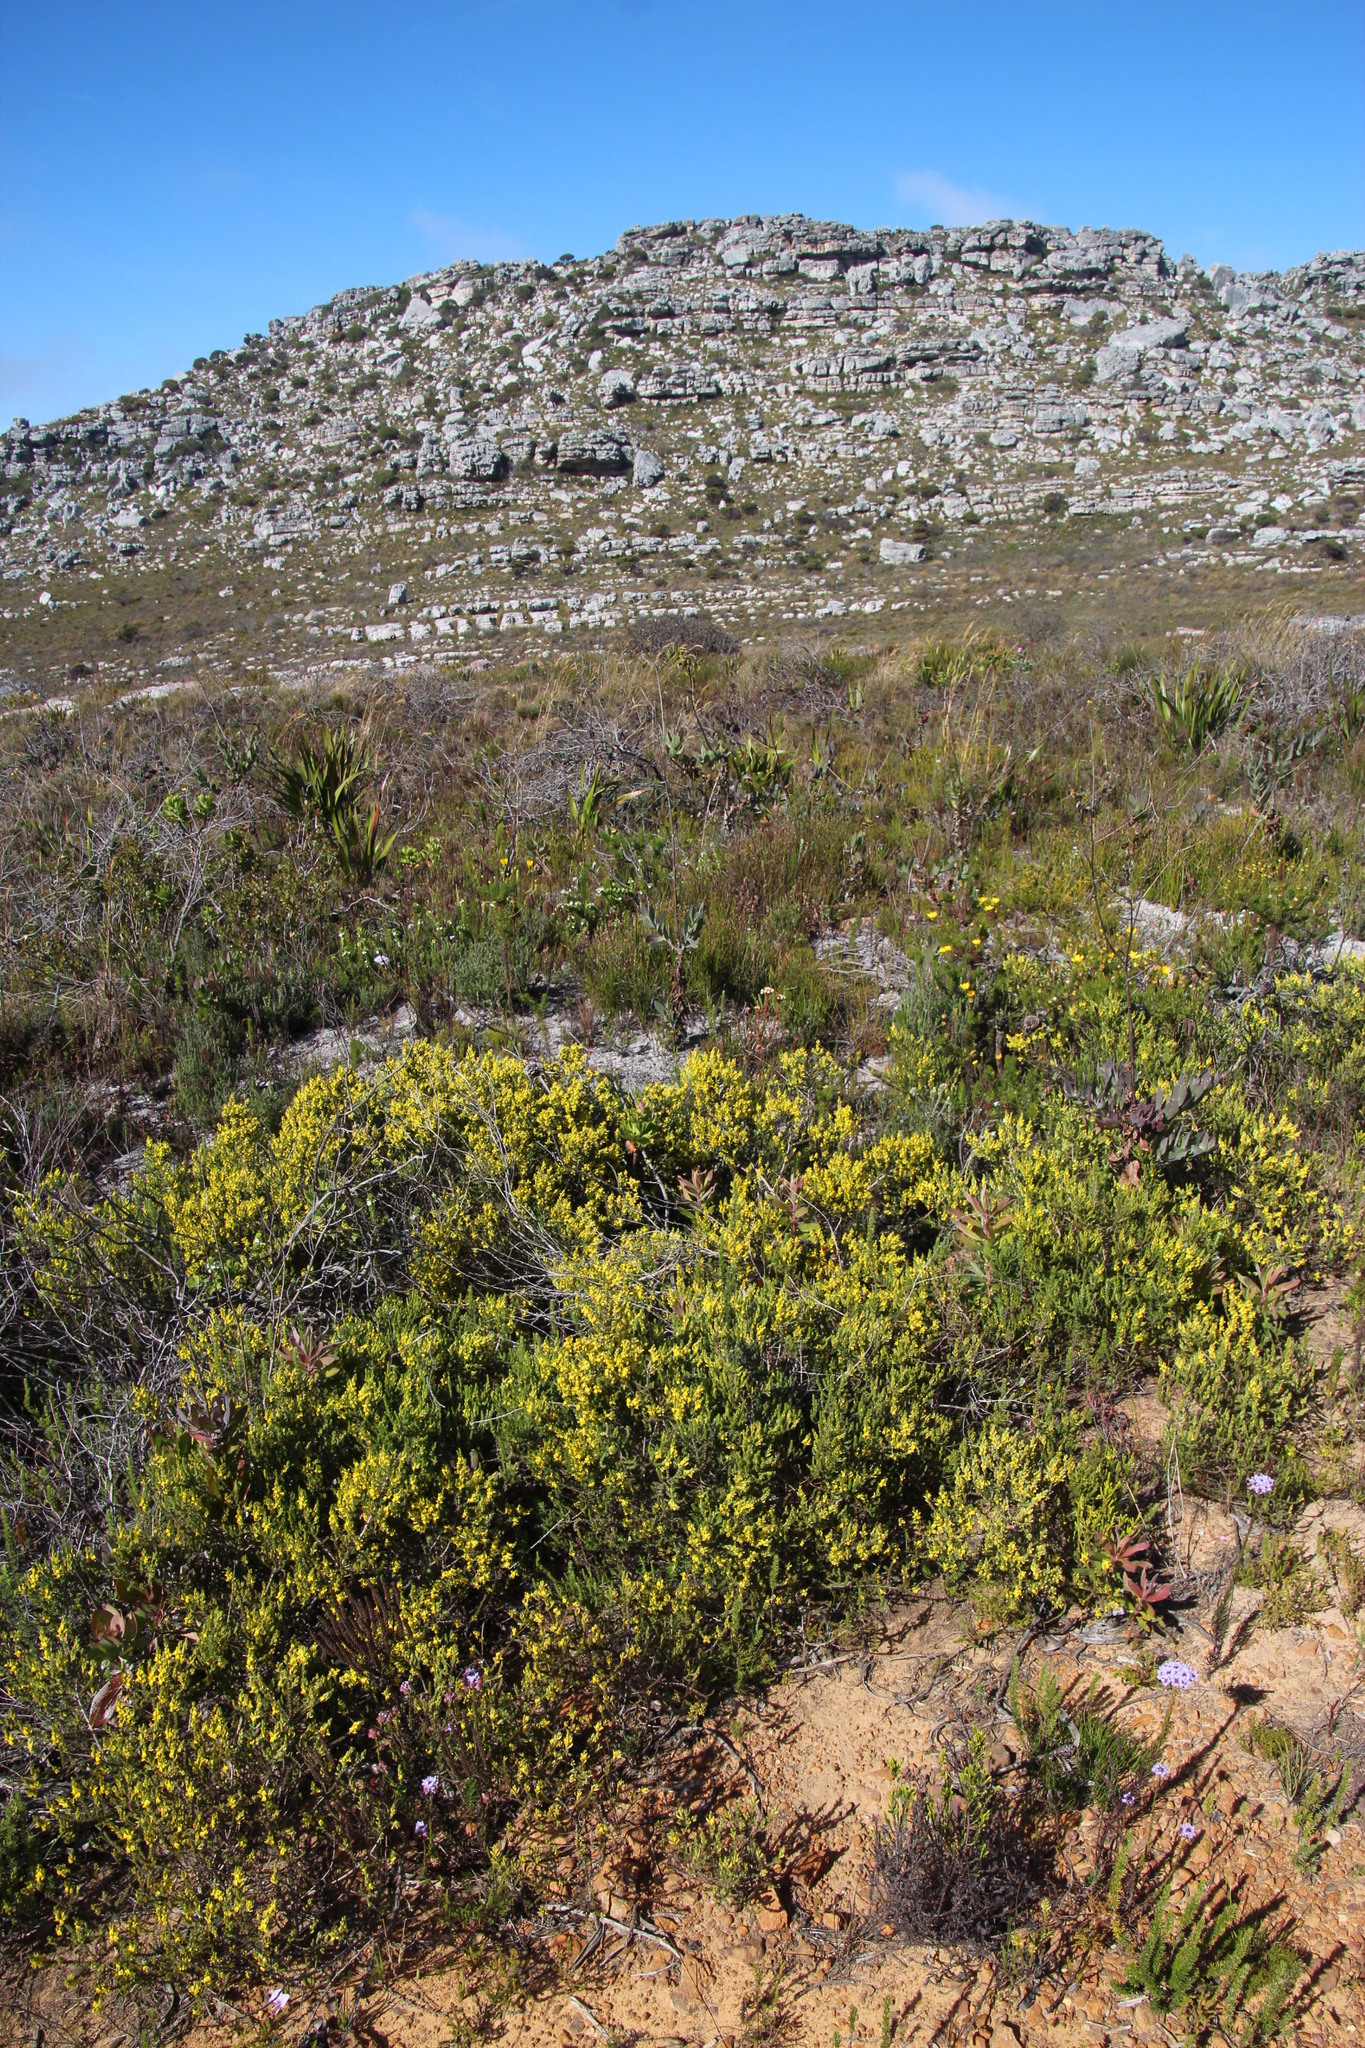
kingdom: Plantae
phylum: Tracheophyta
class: Magnoliopsida
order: Fabales
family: Fabaceae
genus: Aspalathus
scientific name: Aspalathus ericifolia
